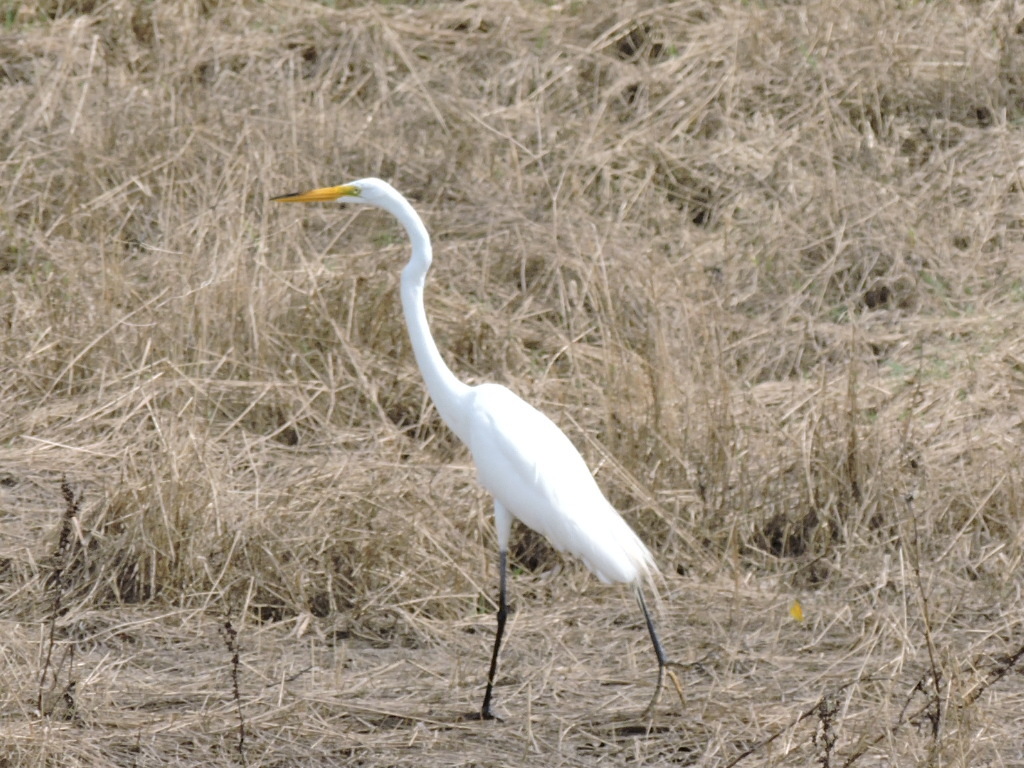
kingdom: Animalia
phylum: Chordata
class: Aves
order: Pelecaniformes
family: Ardeidae
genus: Ardea
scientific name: Ardea alba
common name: Great egret
